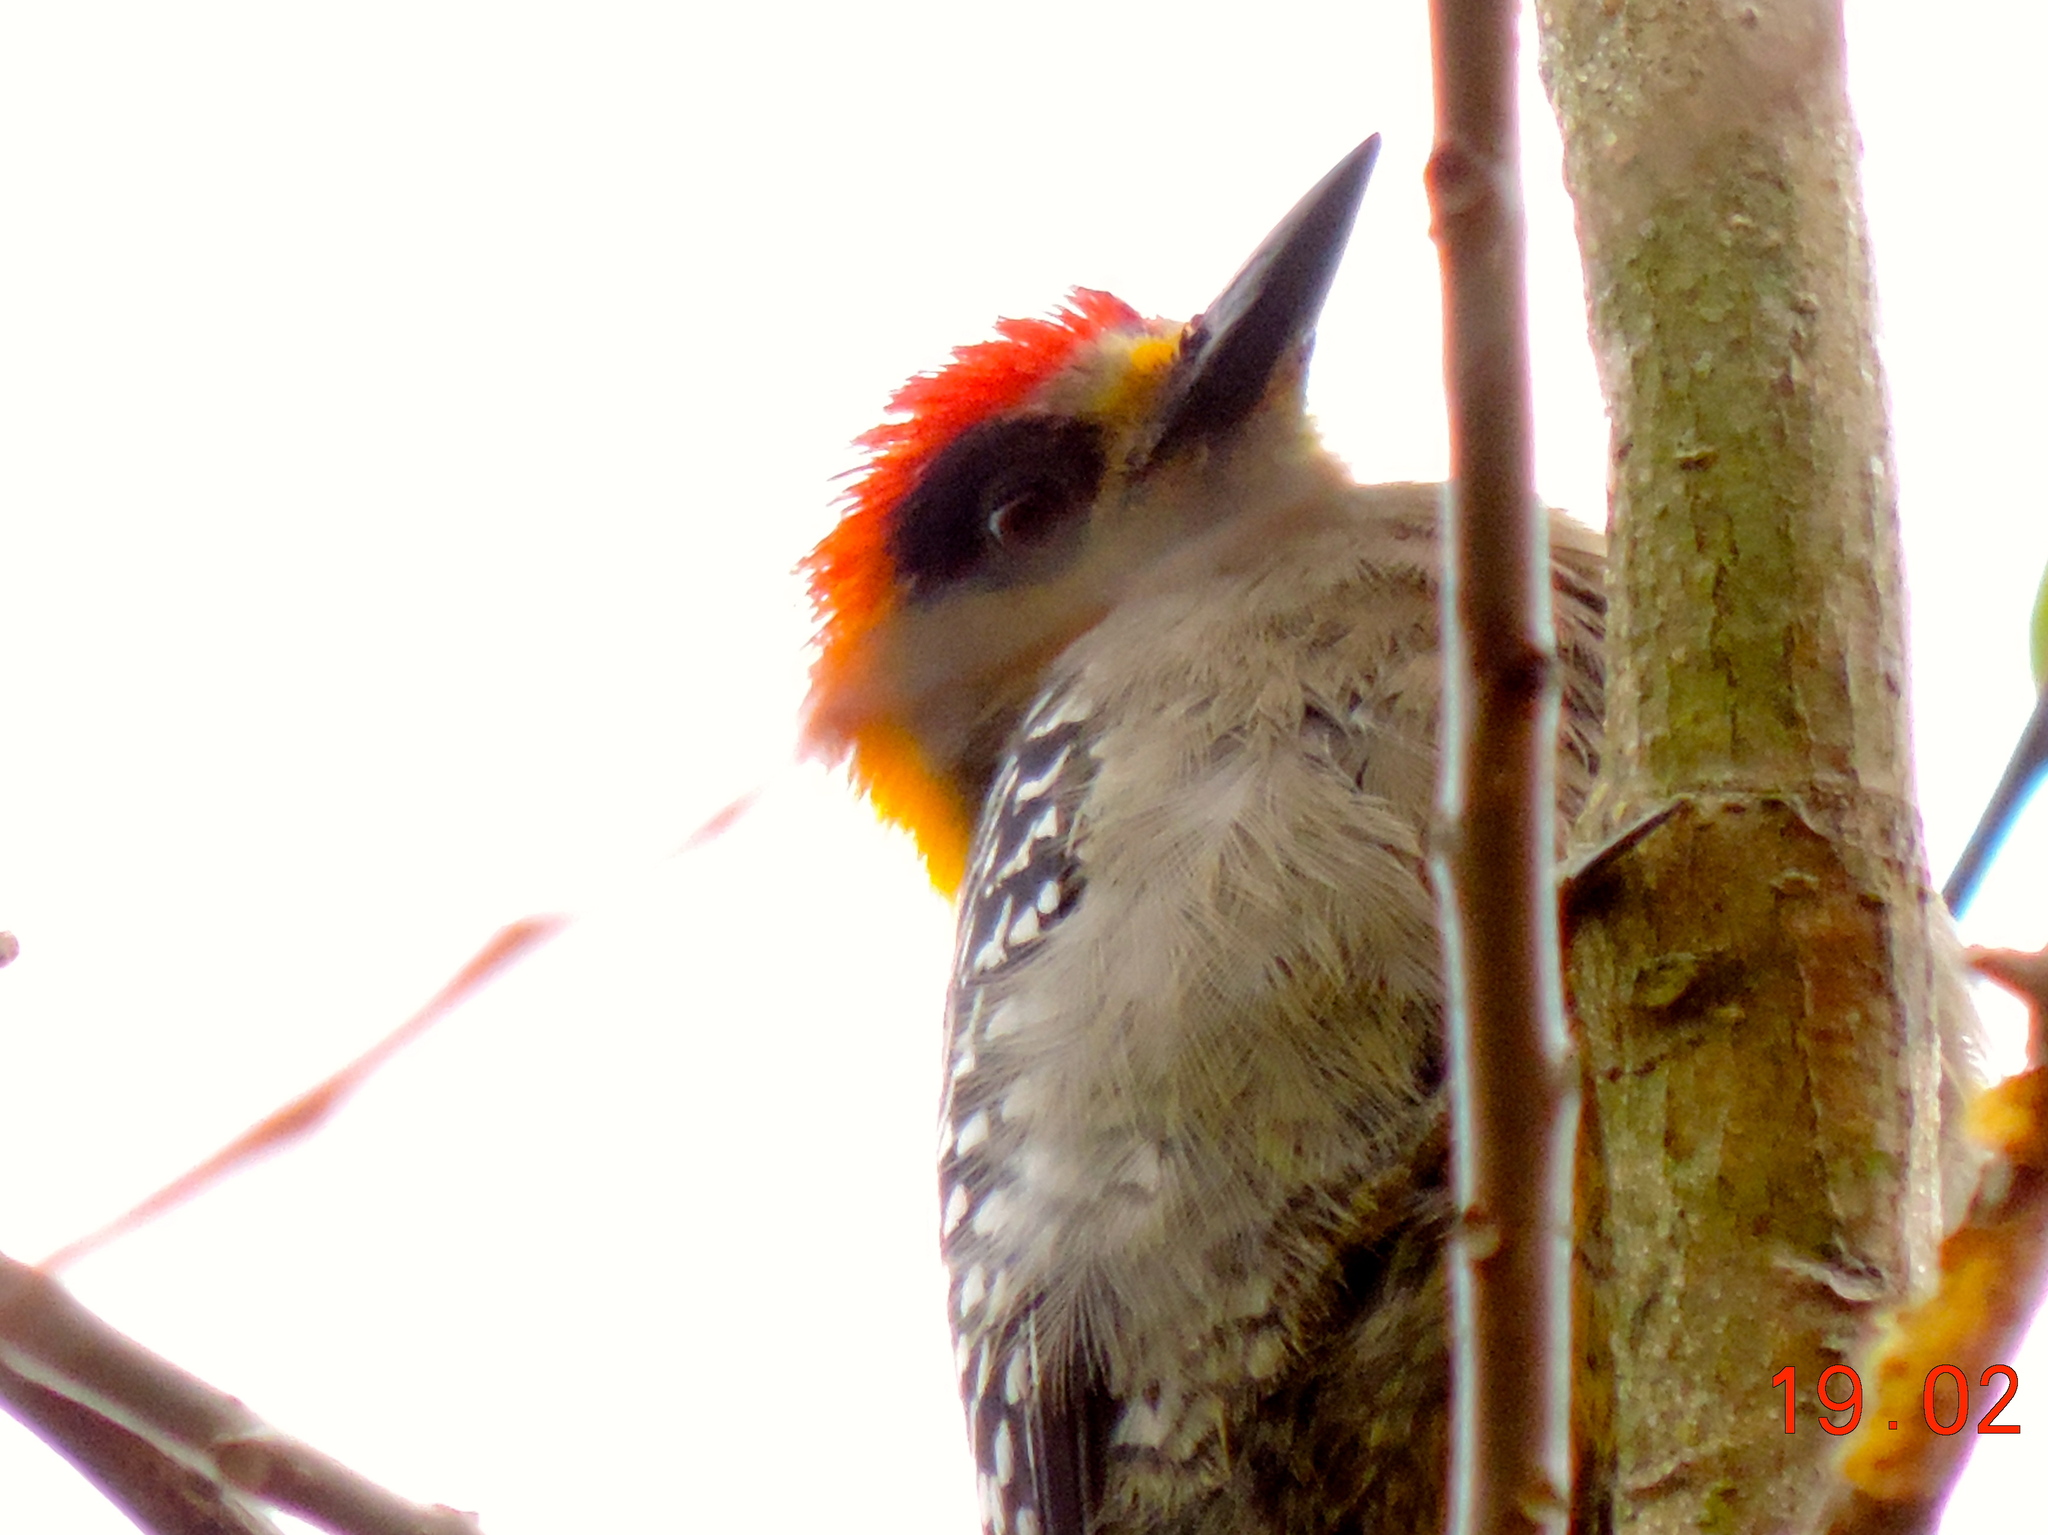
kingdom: Animalia
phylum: Chordata
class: Aves
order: Piciformes
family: Picidae
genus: Melanerpes
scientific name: Melanerpes chrysogenys
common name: Golden-cheeked woodpecker
